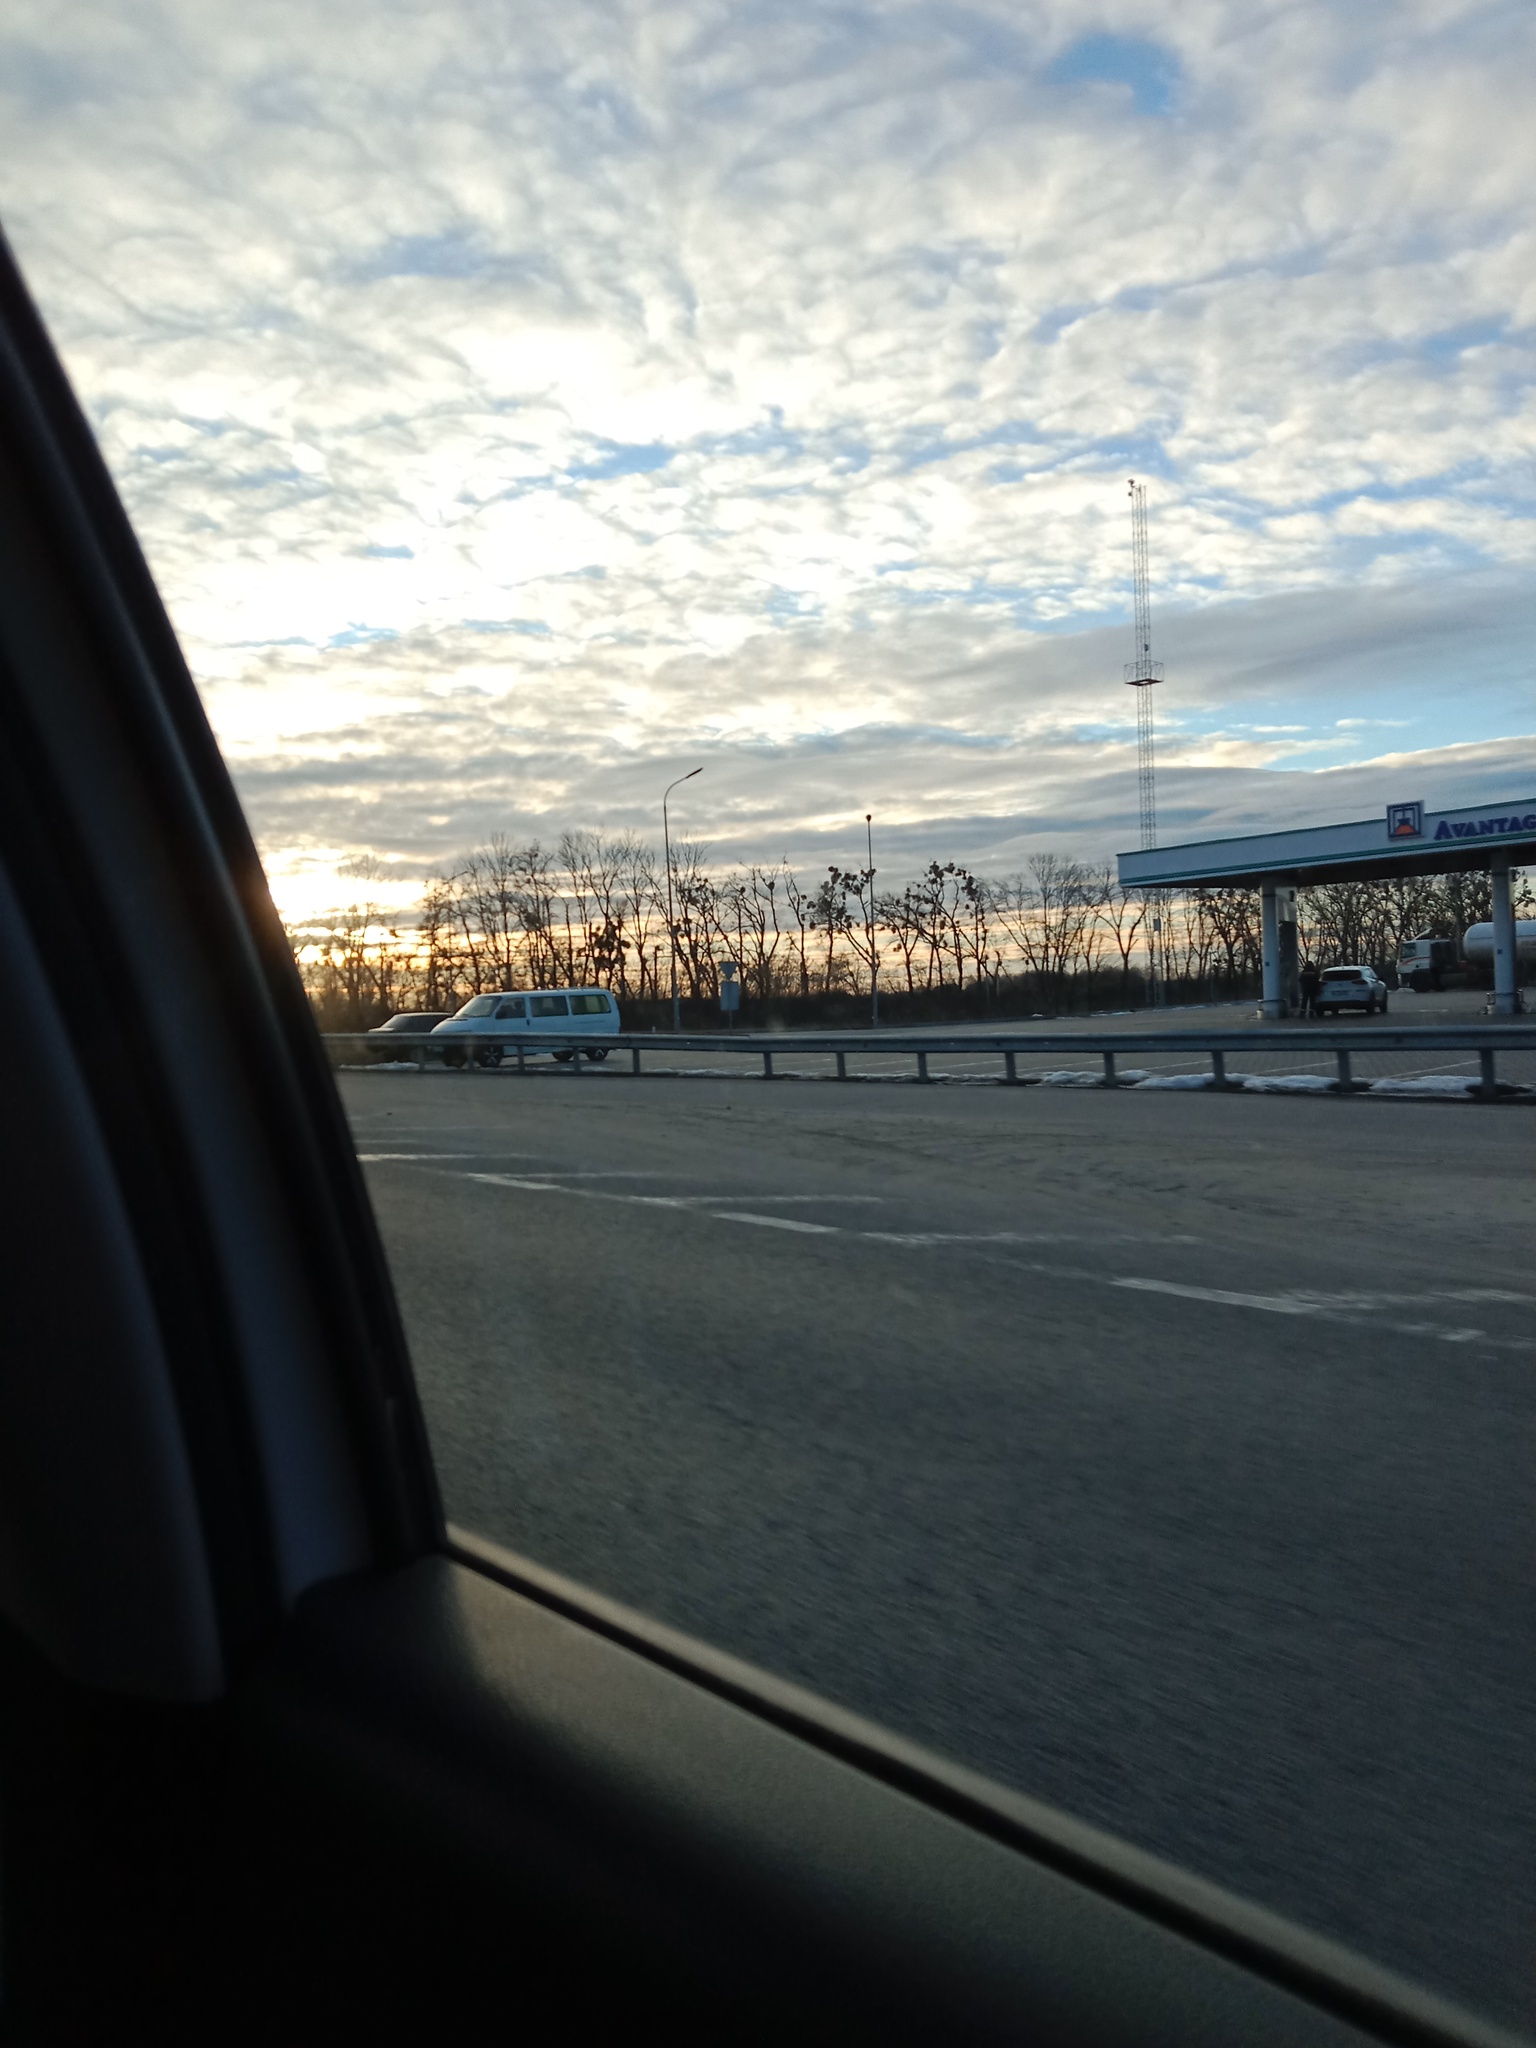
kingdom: Plantae
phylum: Tracheophyta
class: Magnoliopsida
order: Santalales
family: Viscaceae
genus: Viscum
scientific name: Viscum album
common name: Mistletoe
